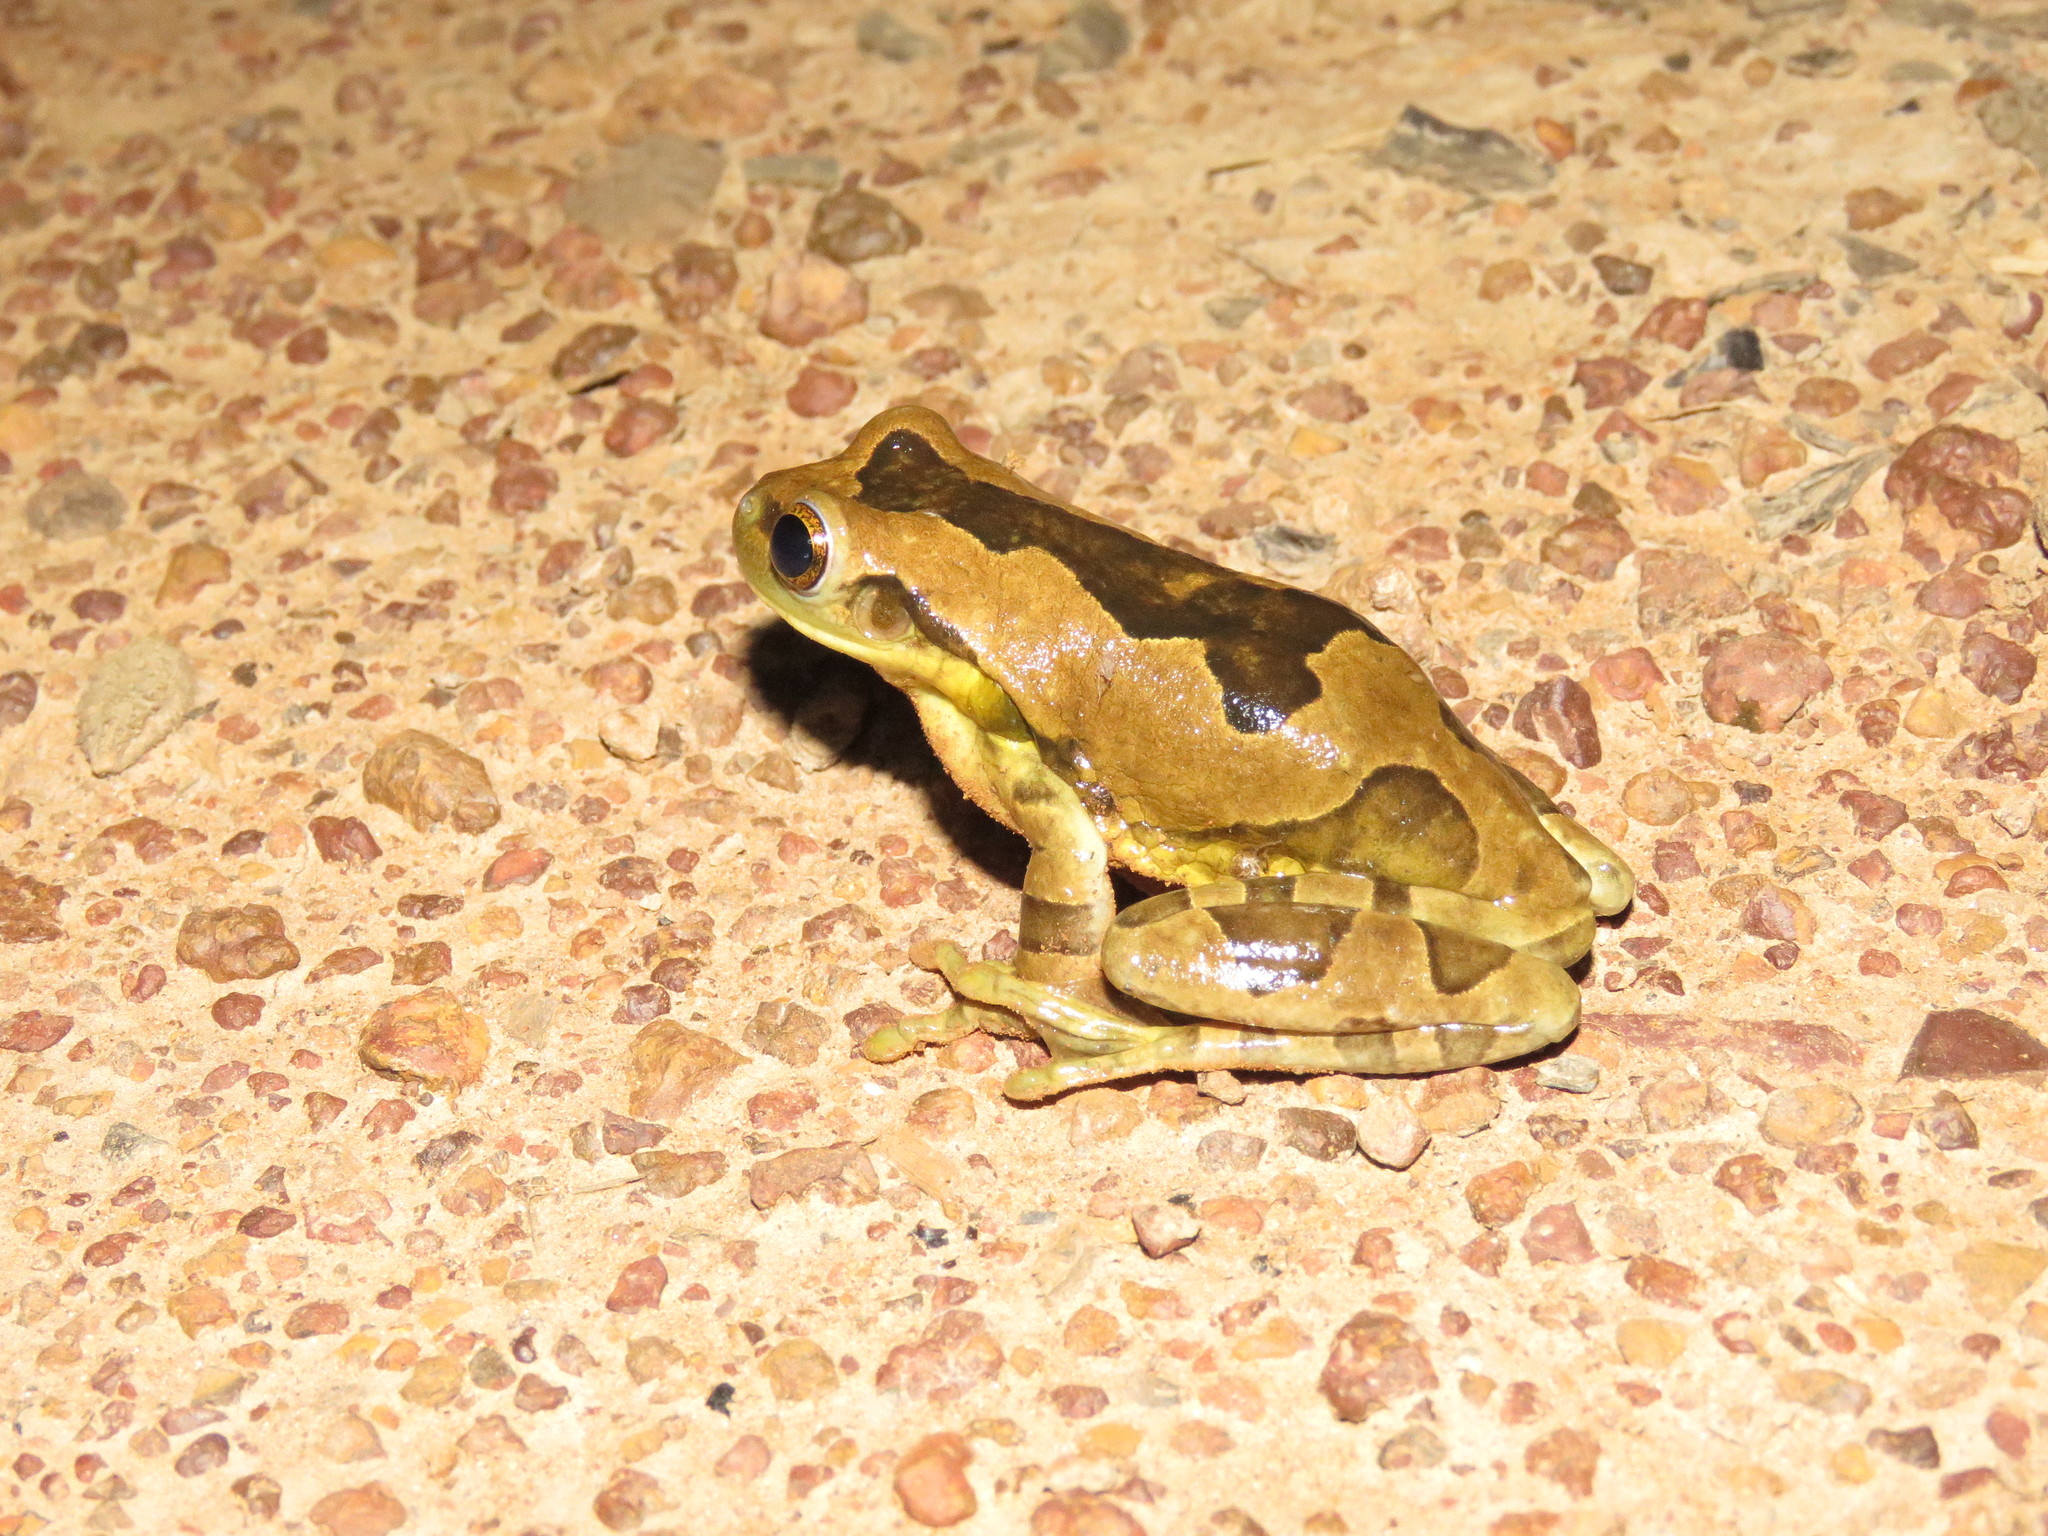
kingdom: Animalia
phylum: Chordata
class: Amphibia
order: Anura
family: Hylidae
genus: Trachycephalus
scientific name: Trachycephalus typhonius
